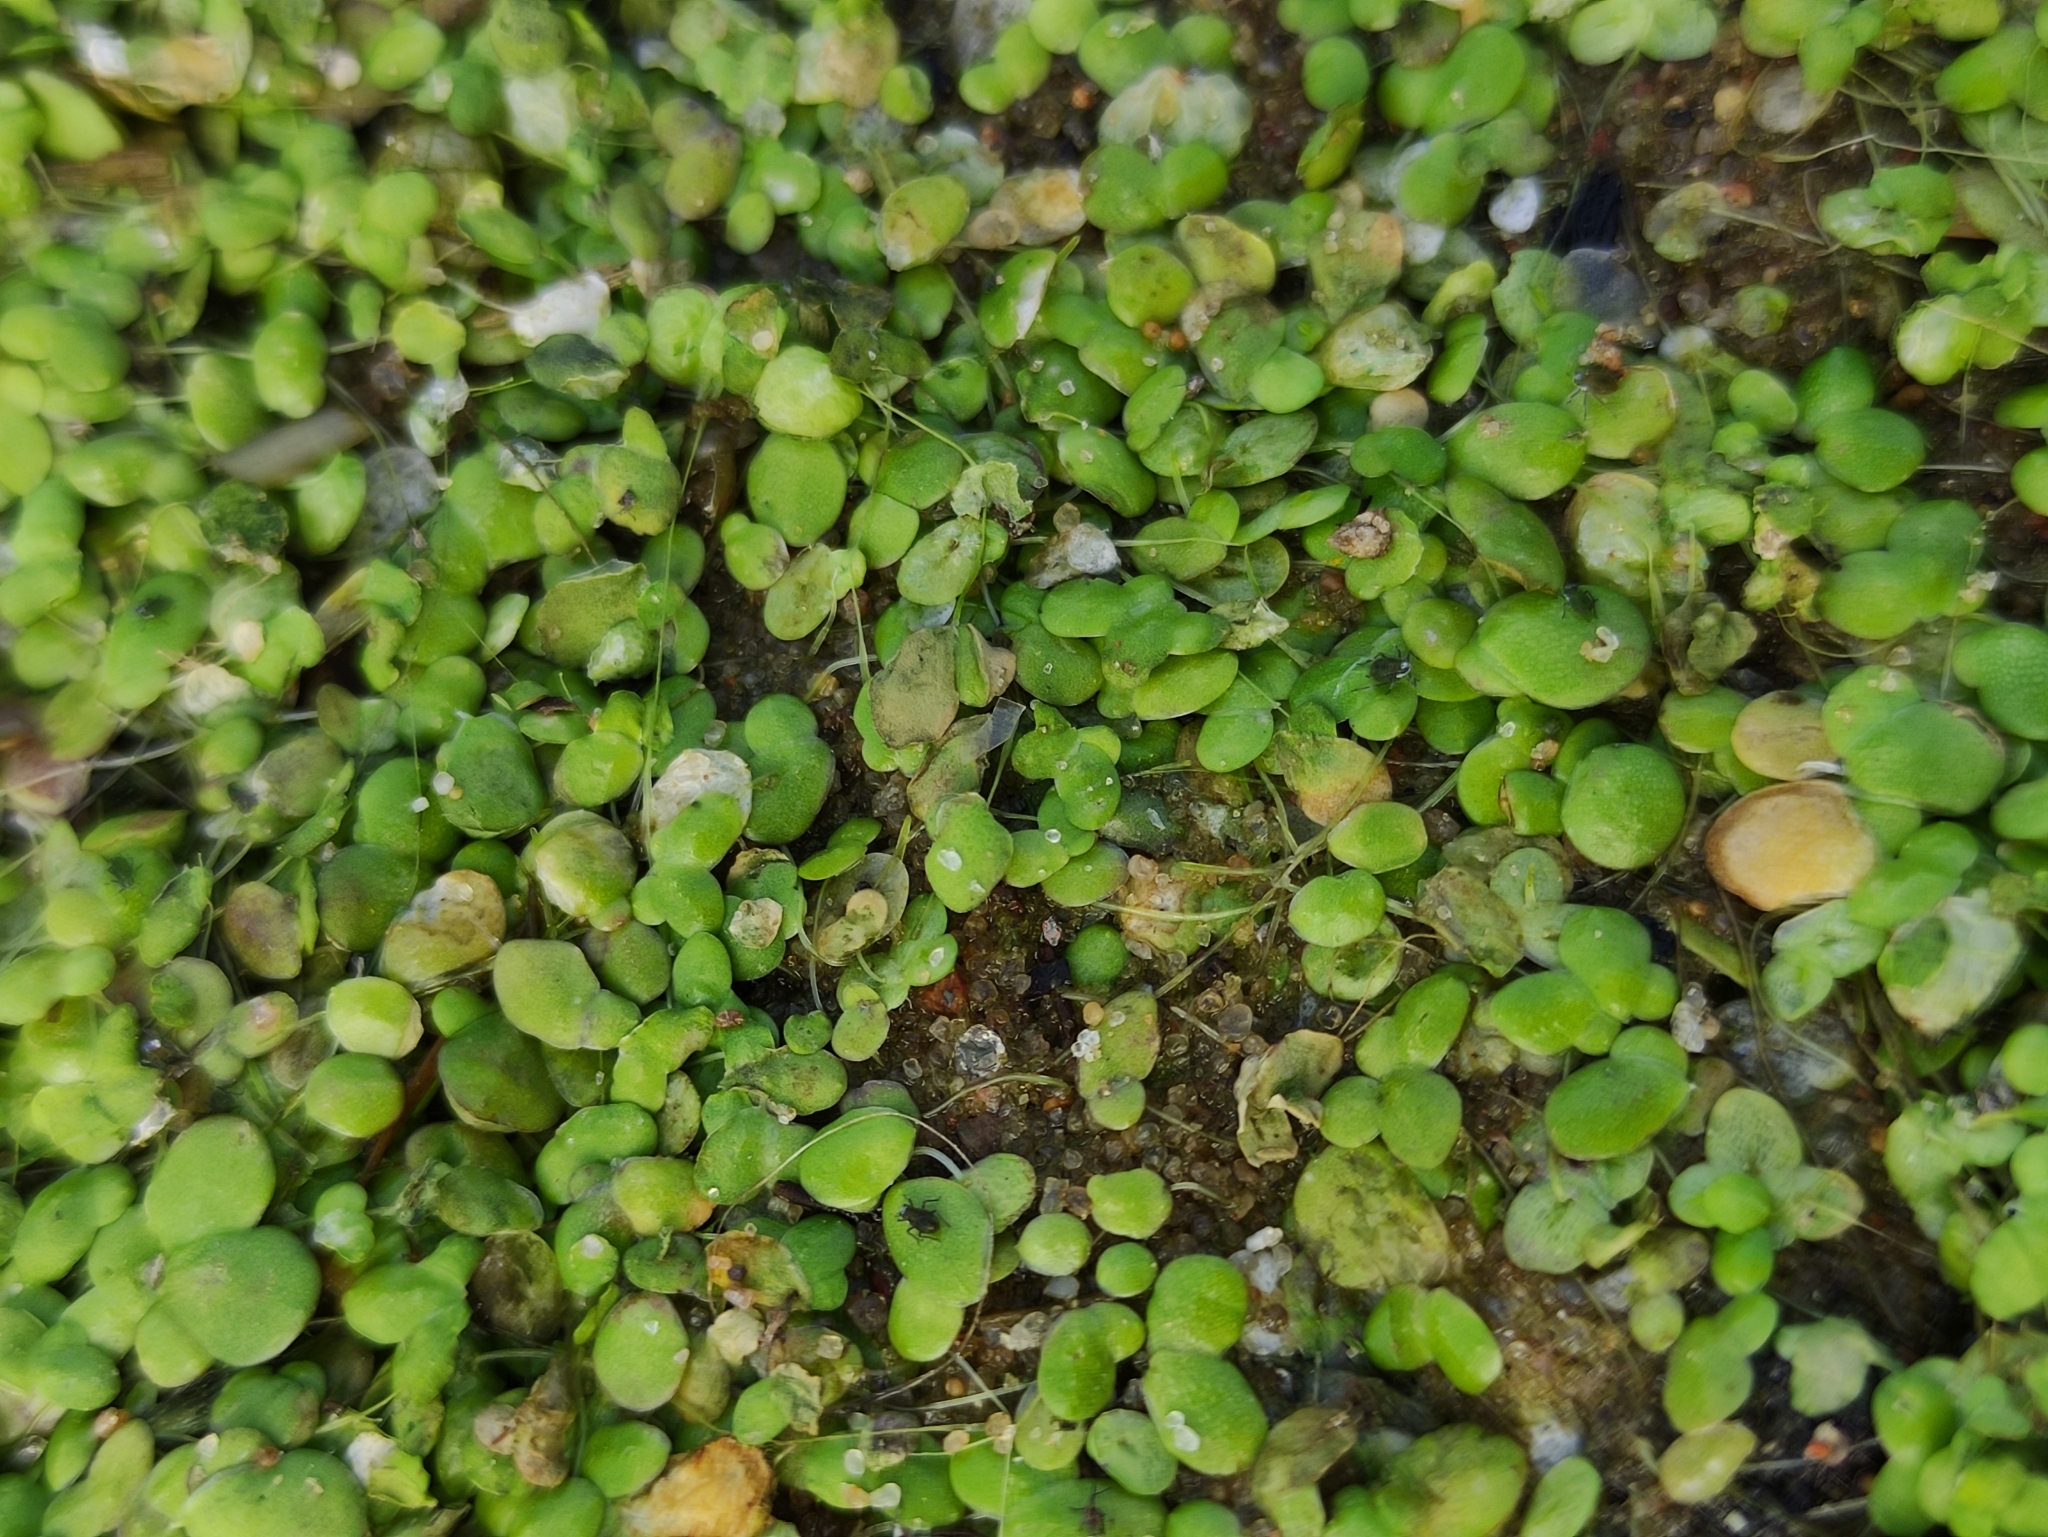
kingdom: Plantae
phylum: Tracheophyta
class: Liliopsida
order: Alismatales
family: Araceae
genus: Lemna
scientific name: Lemna minor
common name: Common duckweed
